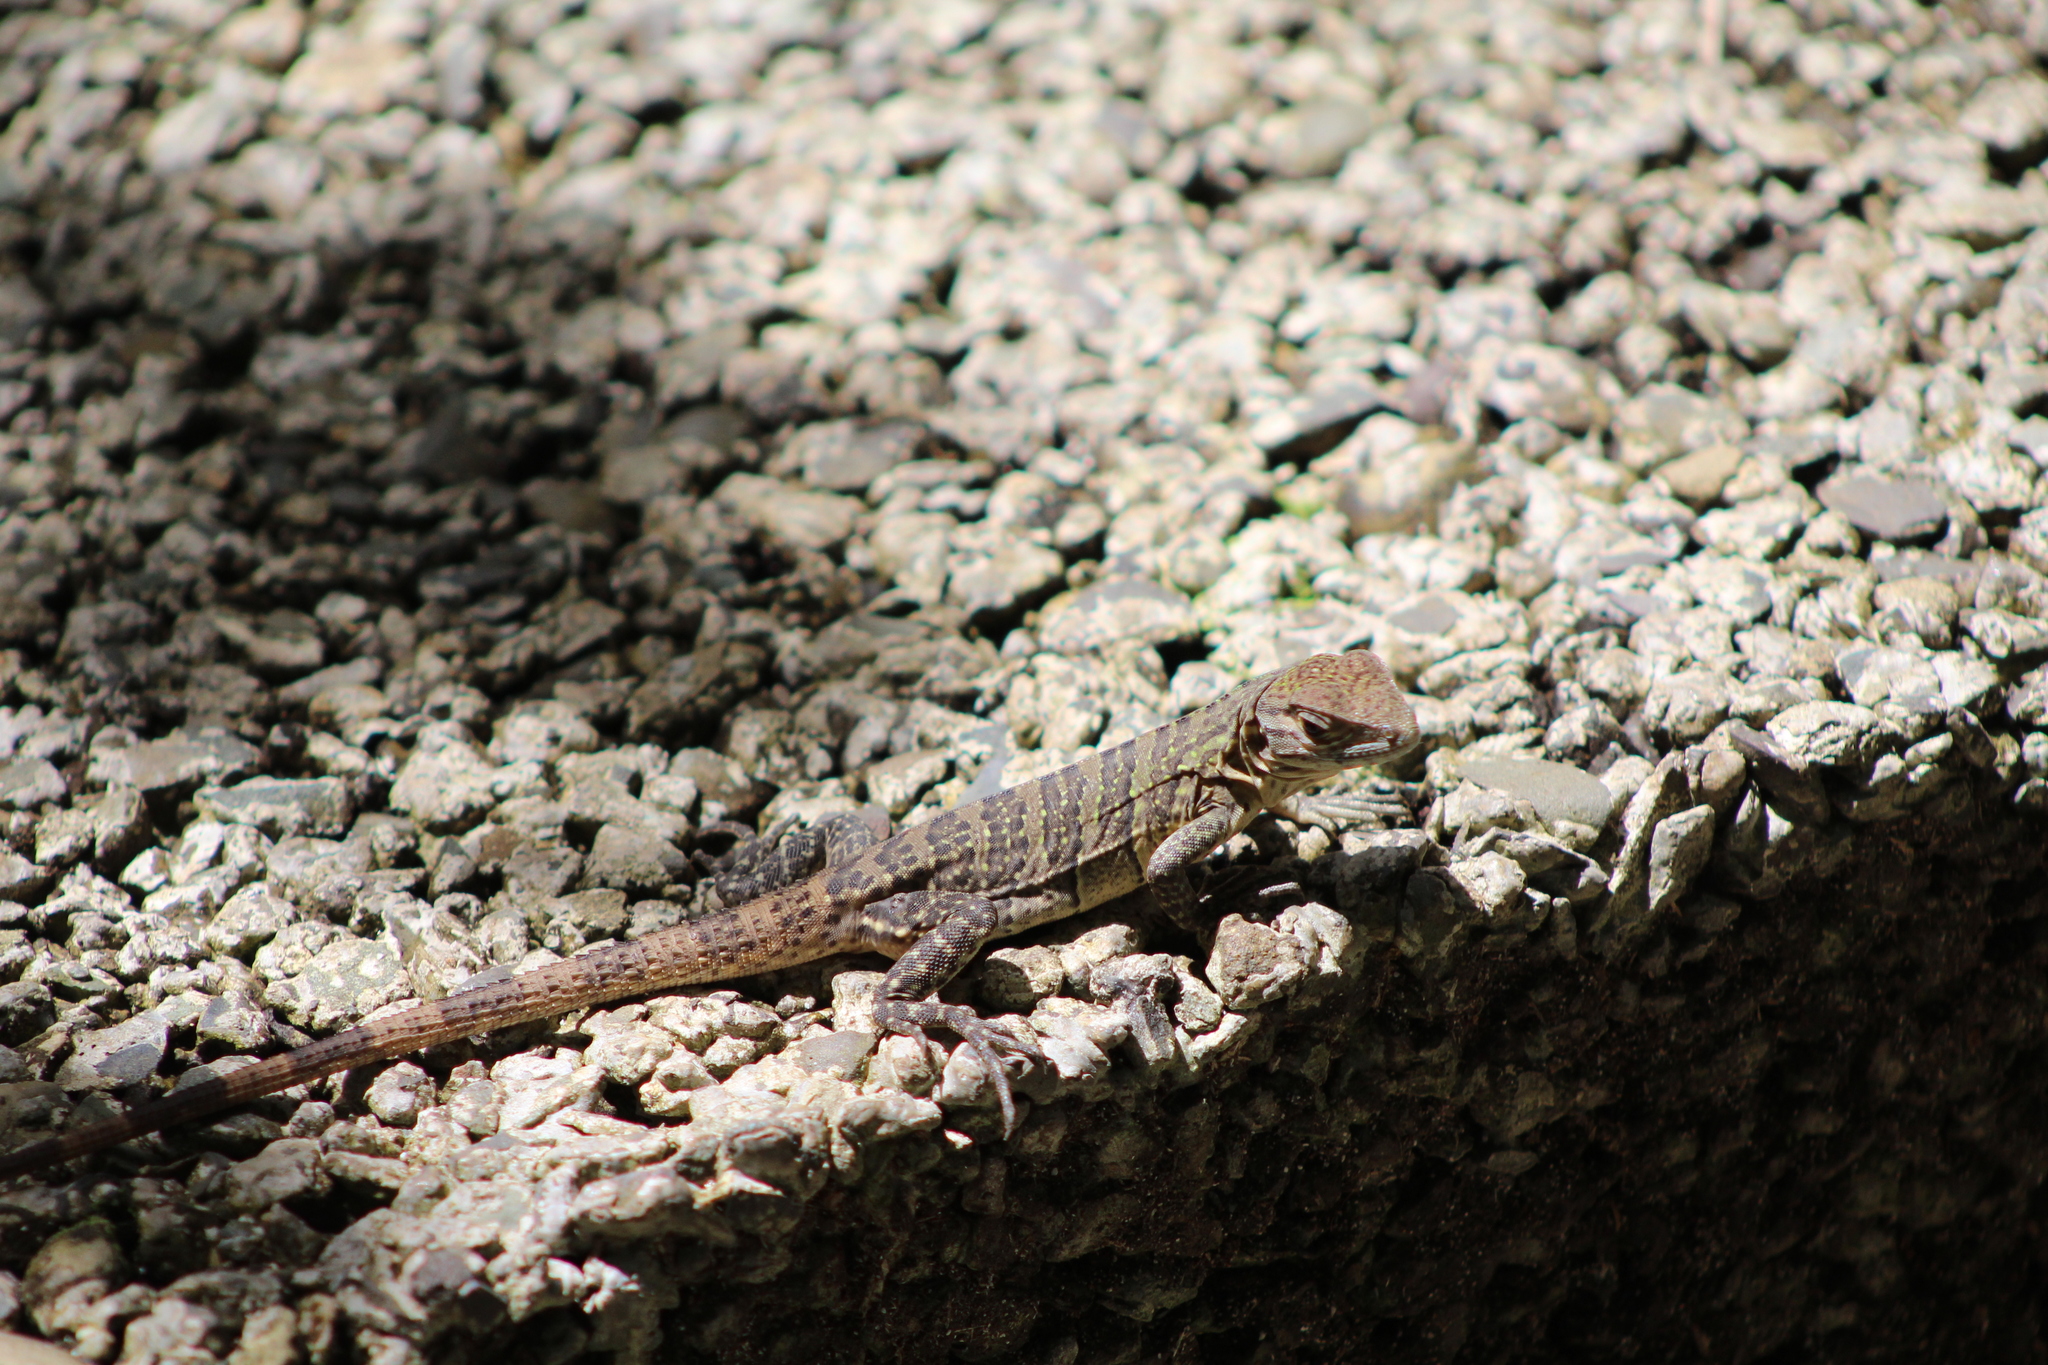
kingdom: Animalia
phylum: Chordata
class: Squamata
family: Iguanidae
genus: Ctenosaura
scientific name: Ctenosaura similis
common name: Black spiny-tailed iguana
